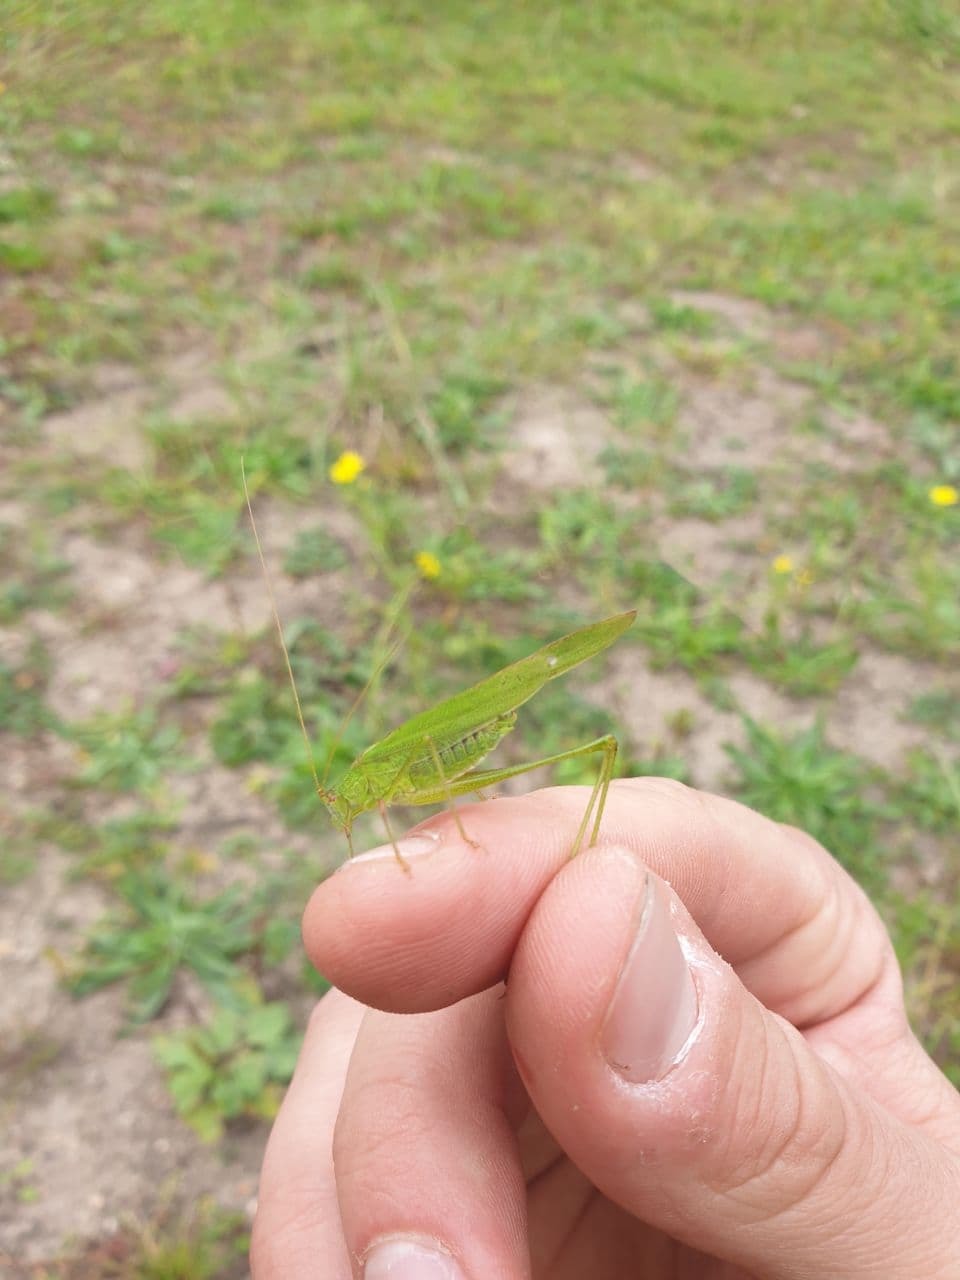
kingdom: Animalia
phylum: Arthropoda
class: Insecta
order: Orthoptera
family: Tettigoniidae
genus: Phaneroptera
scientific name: Phaneroptera falcata
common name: Sickle-bearing bush-cricket
